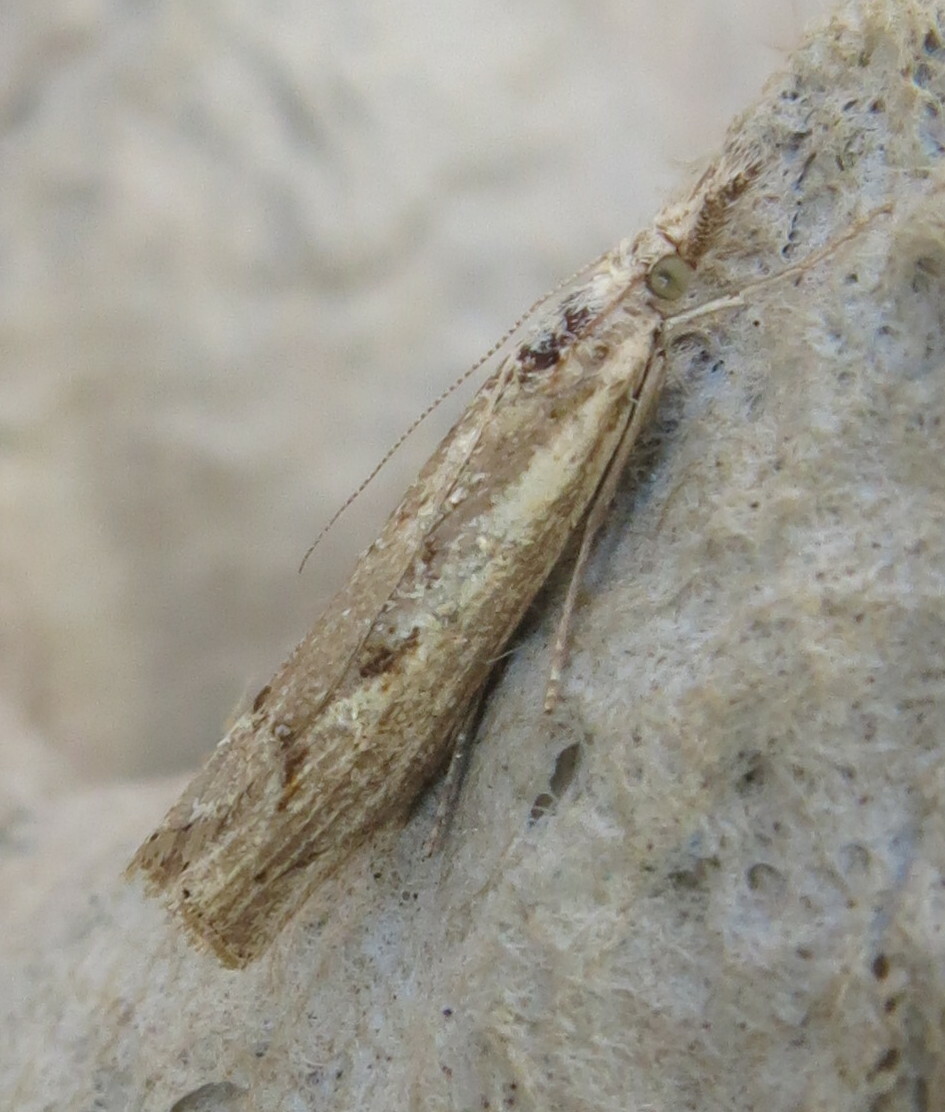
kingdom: Animalia
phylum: Arthropoda
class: Insecta
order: Lepidoptera
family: Crambidae
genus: Agriphila
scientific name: Agriphila geniculea
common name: Elbow-stripe grass-veneer
